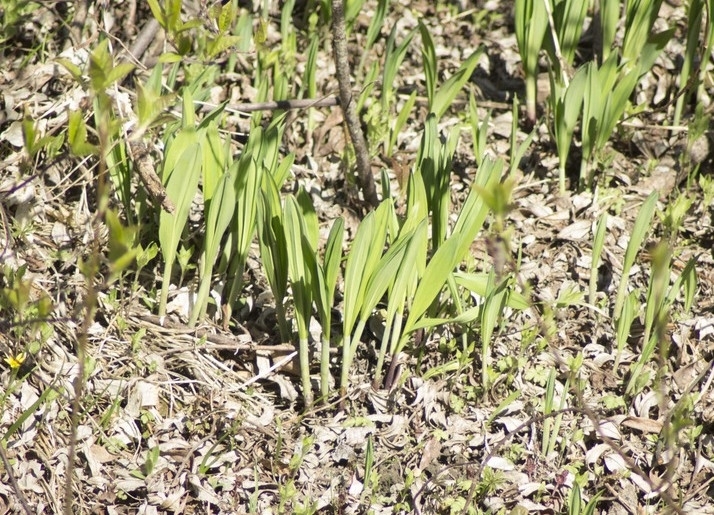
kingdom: Plantae
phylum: Tracheophyta
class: Liliopsida
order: Asparagales
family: Amaryllidaceae
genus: Allium
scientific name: Allium microdictyon
